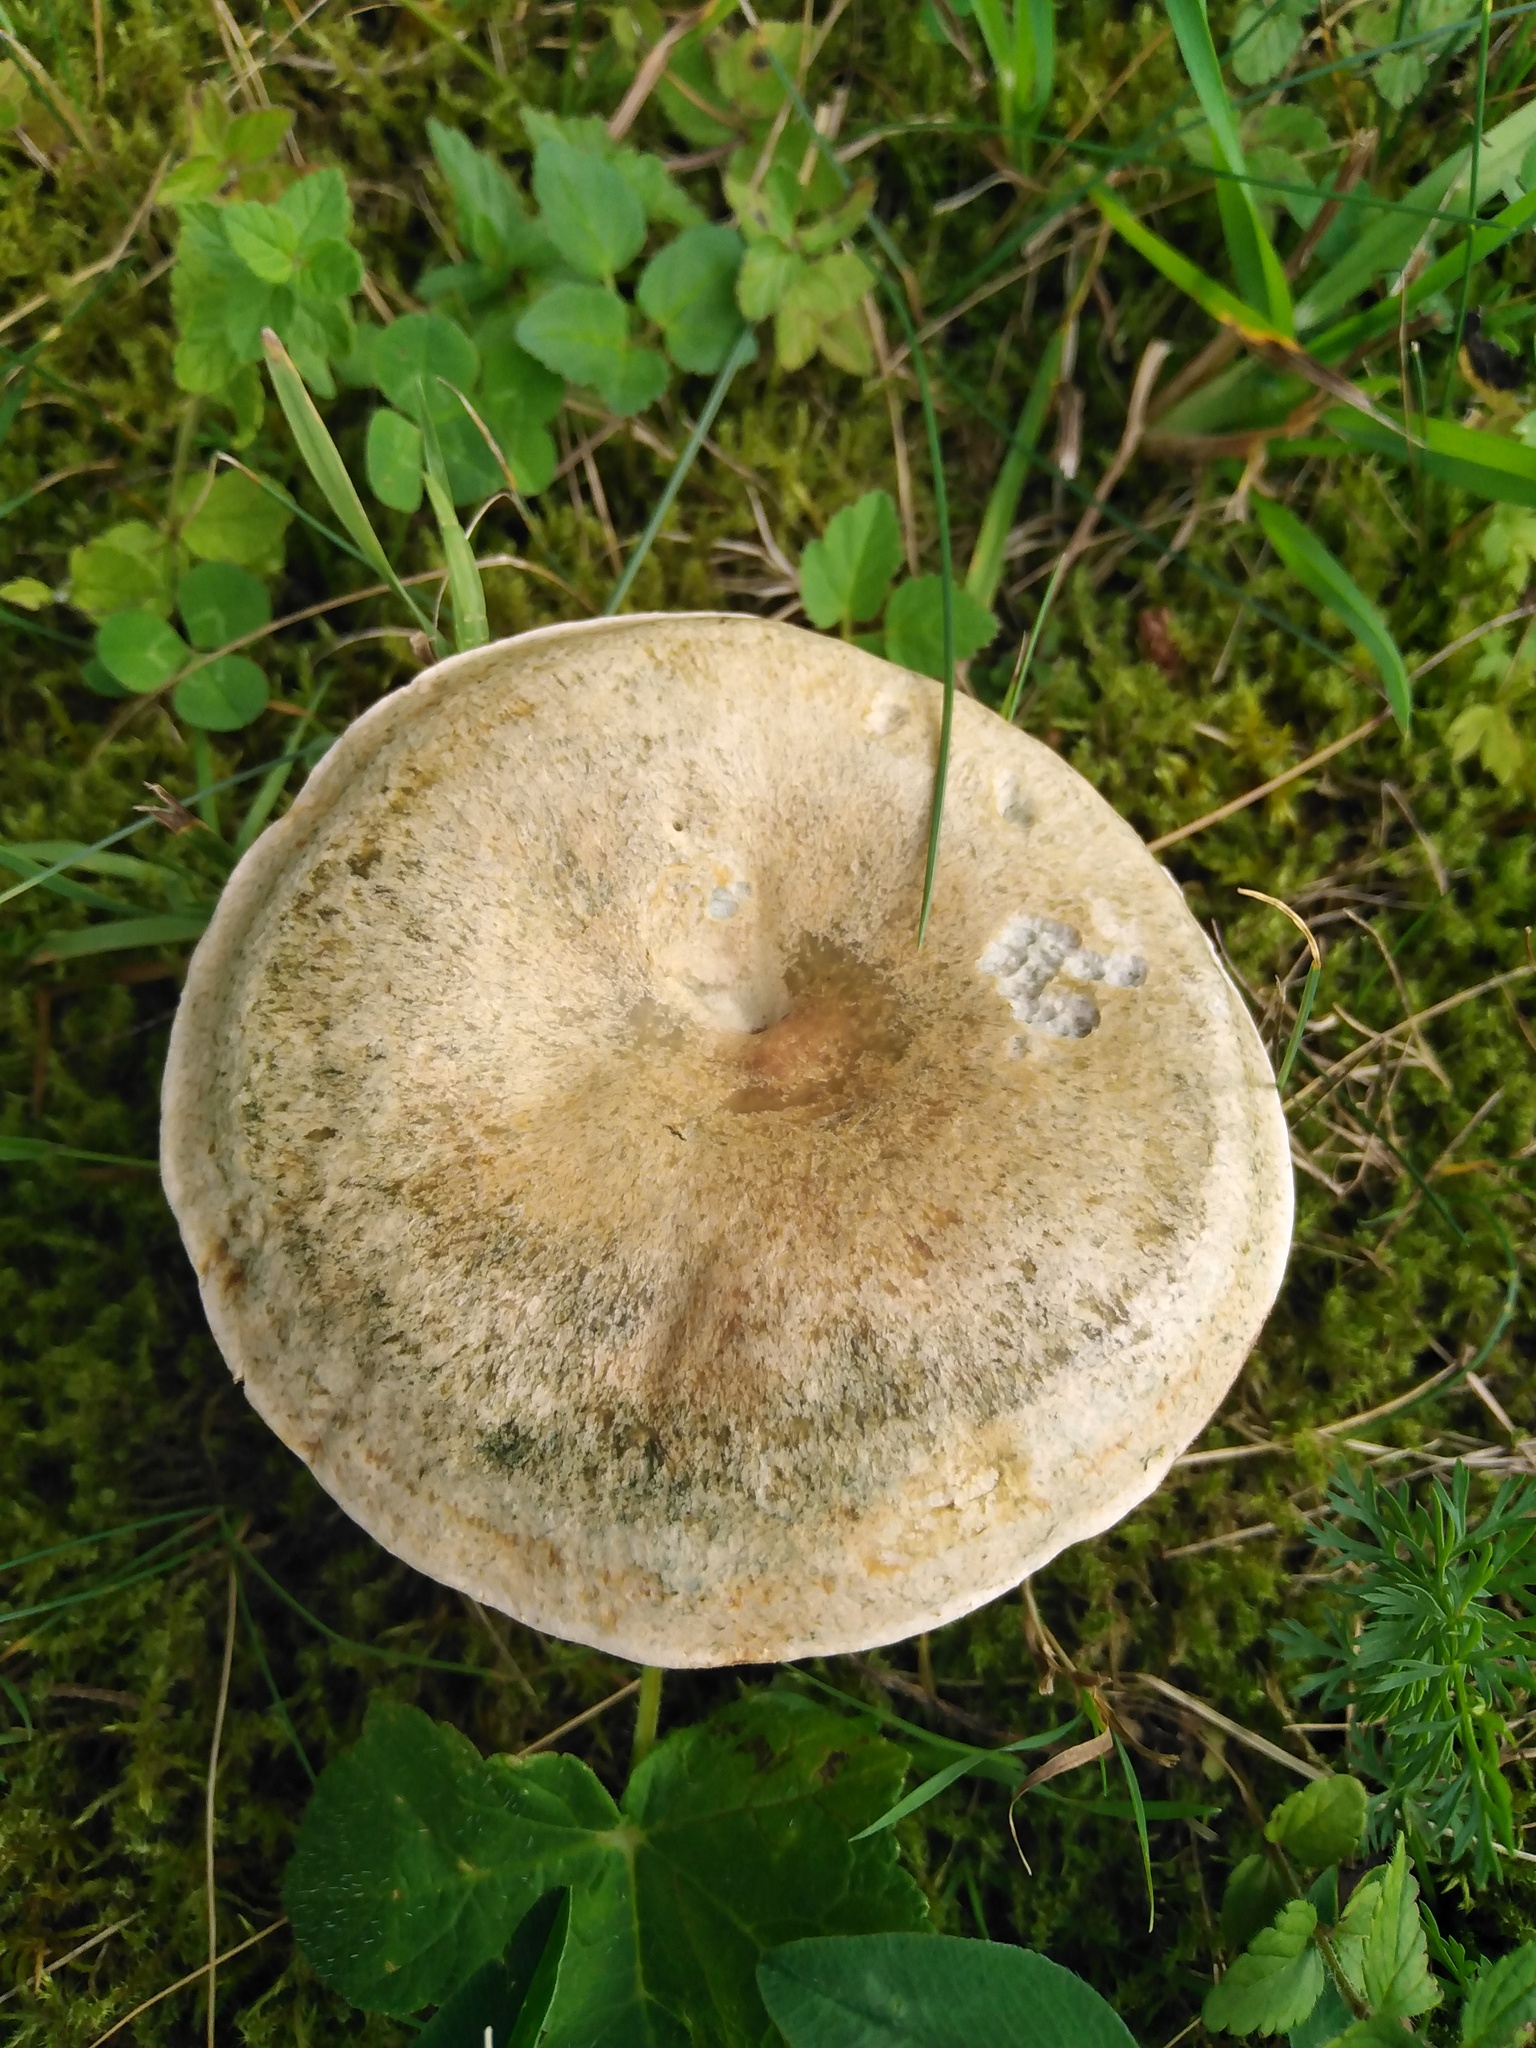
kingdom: Fungi
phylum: Basidiomycota
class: Agaricomycetes
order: Russulales
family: Russulaceae
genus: Lactarius
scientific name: Lactarius deterrimus
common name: False saffron milkcap
